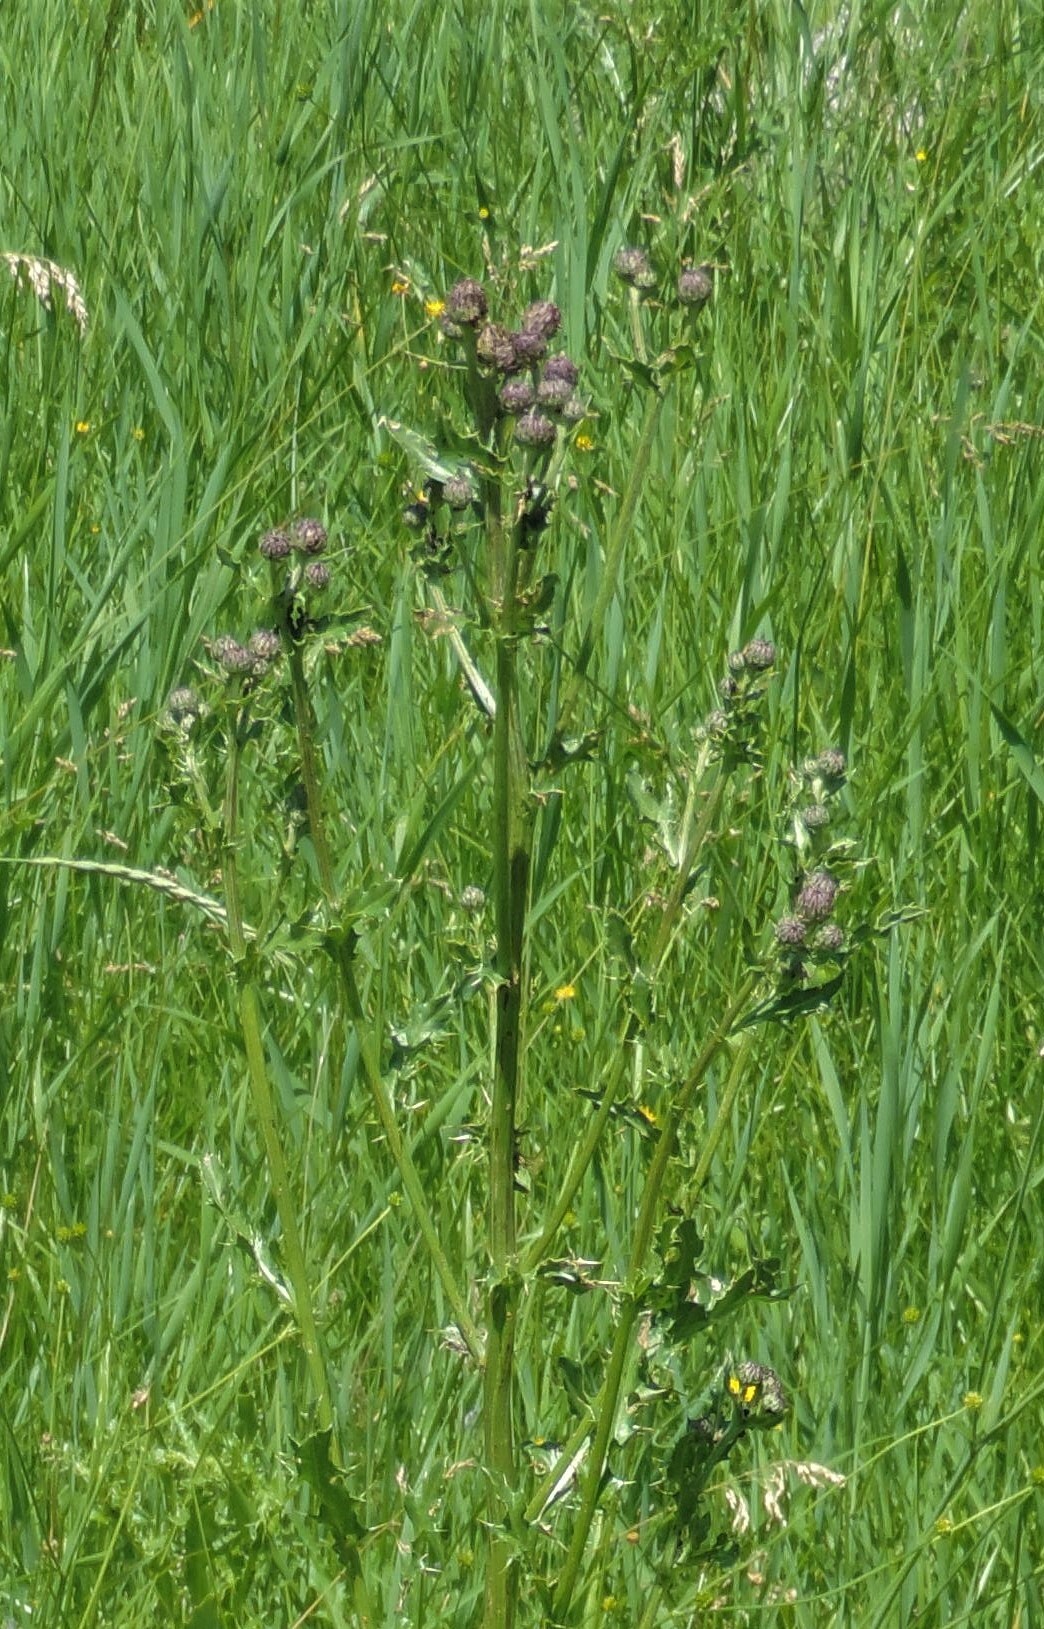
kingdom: Plantae
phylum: Tracheophyta
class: Magnoliopsida
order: Asterales
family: Asteraceae
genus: Cirsium
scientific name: Cirsium arvense
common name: Creeping thistle
